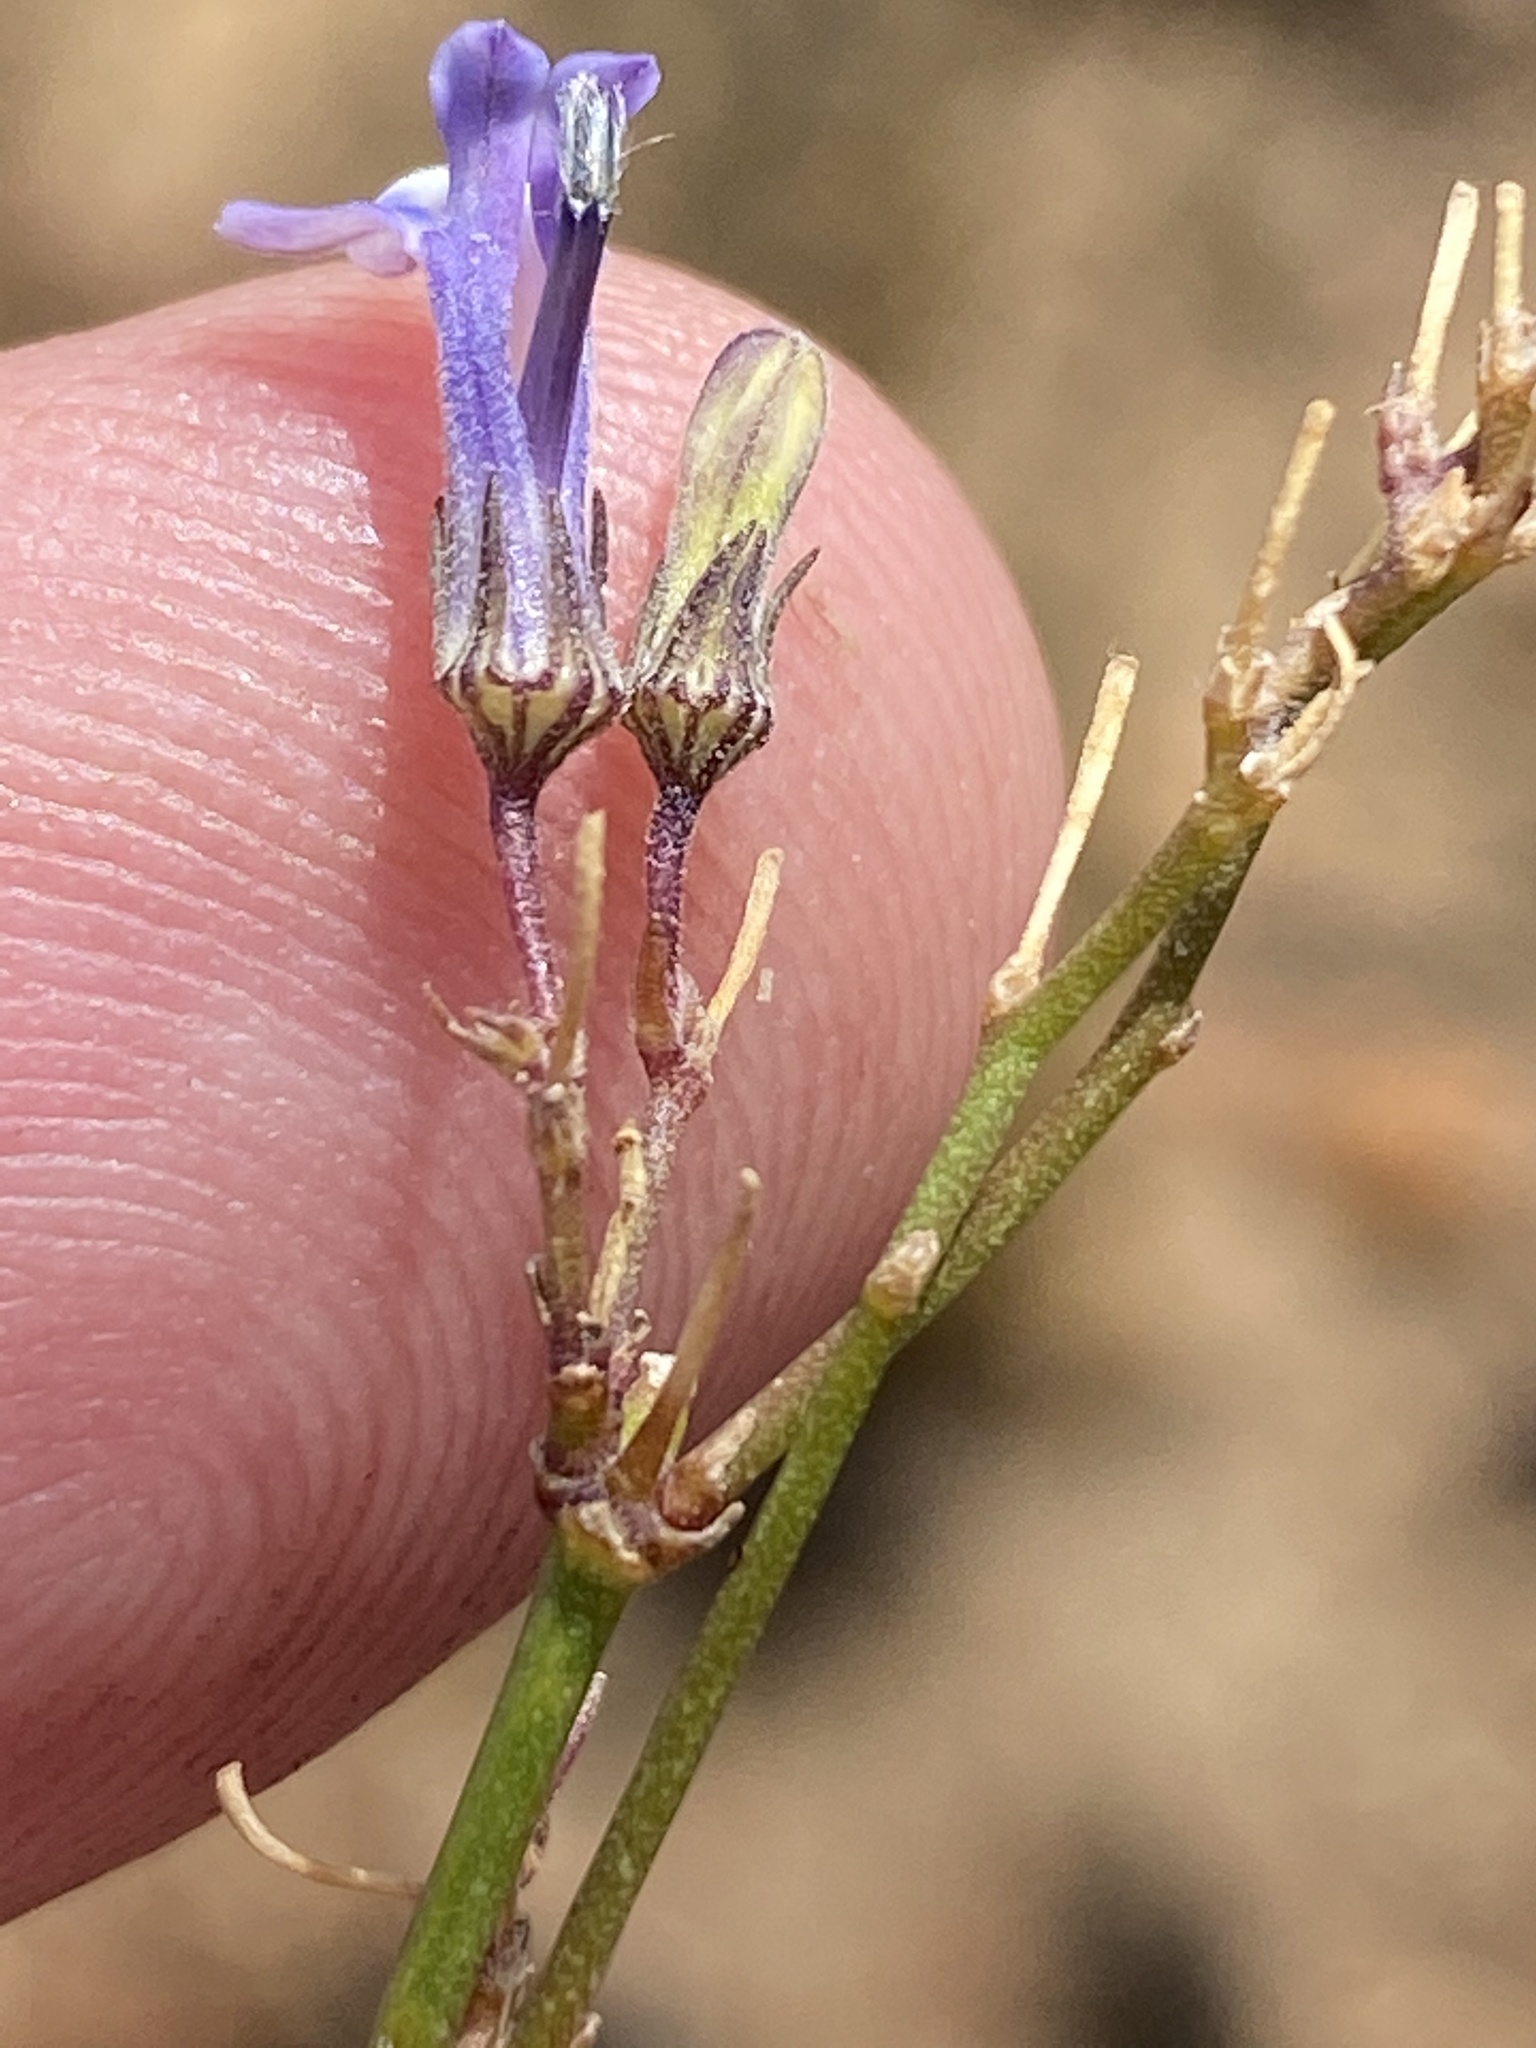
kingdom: Plantae
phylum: Tracheophyta
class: Magnoliopsida
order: Asterales
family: Campanulaceae
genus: Lobelia
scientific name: Lobelia linearis
